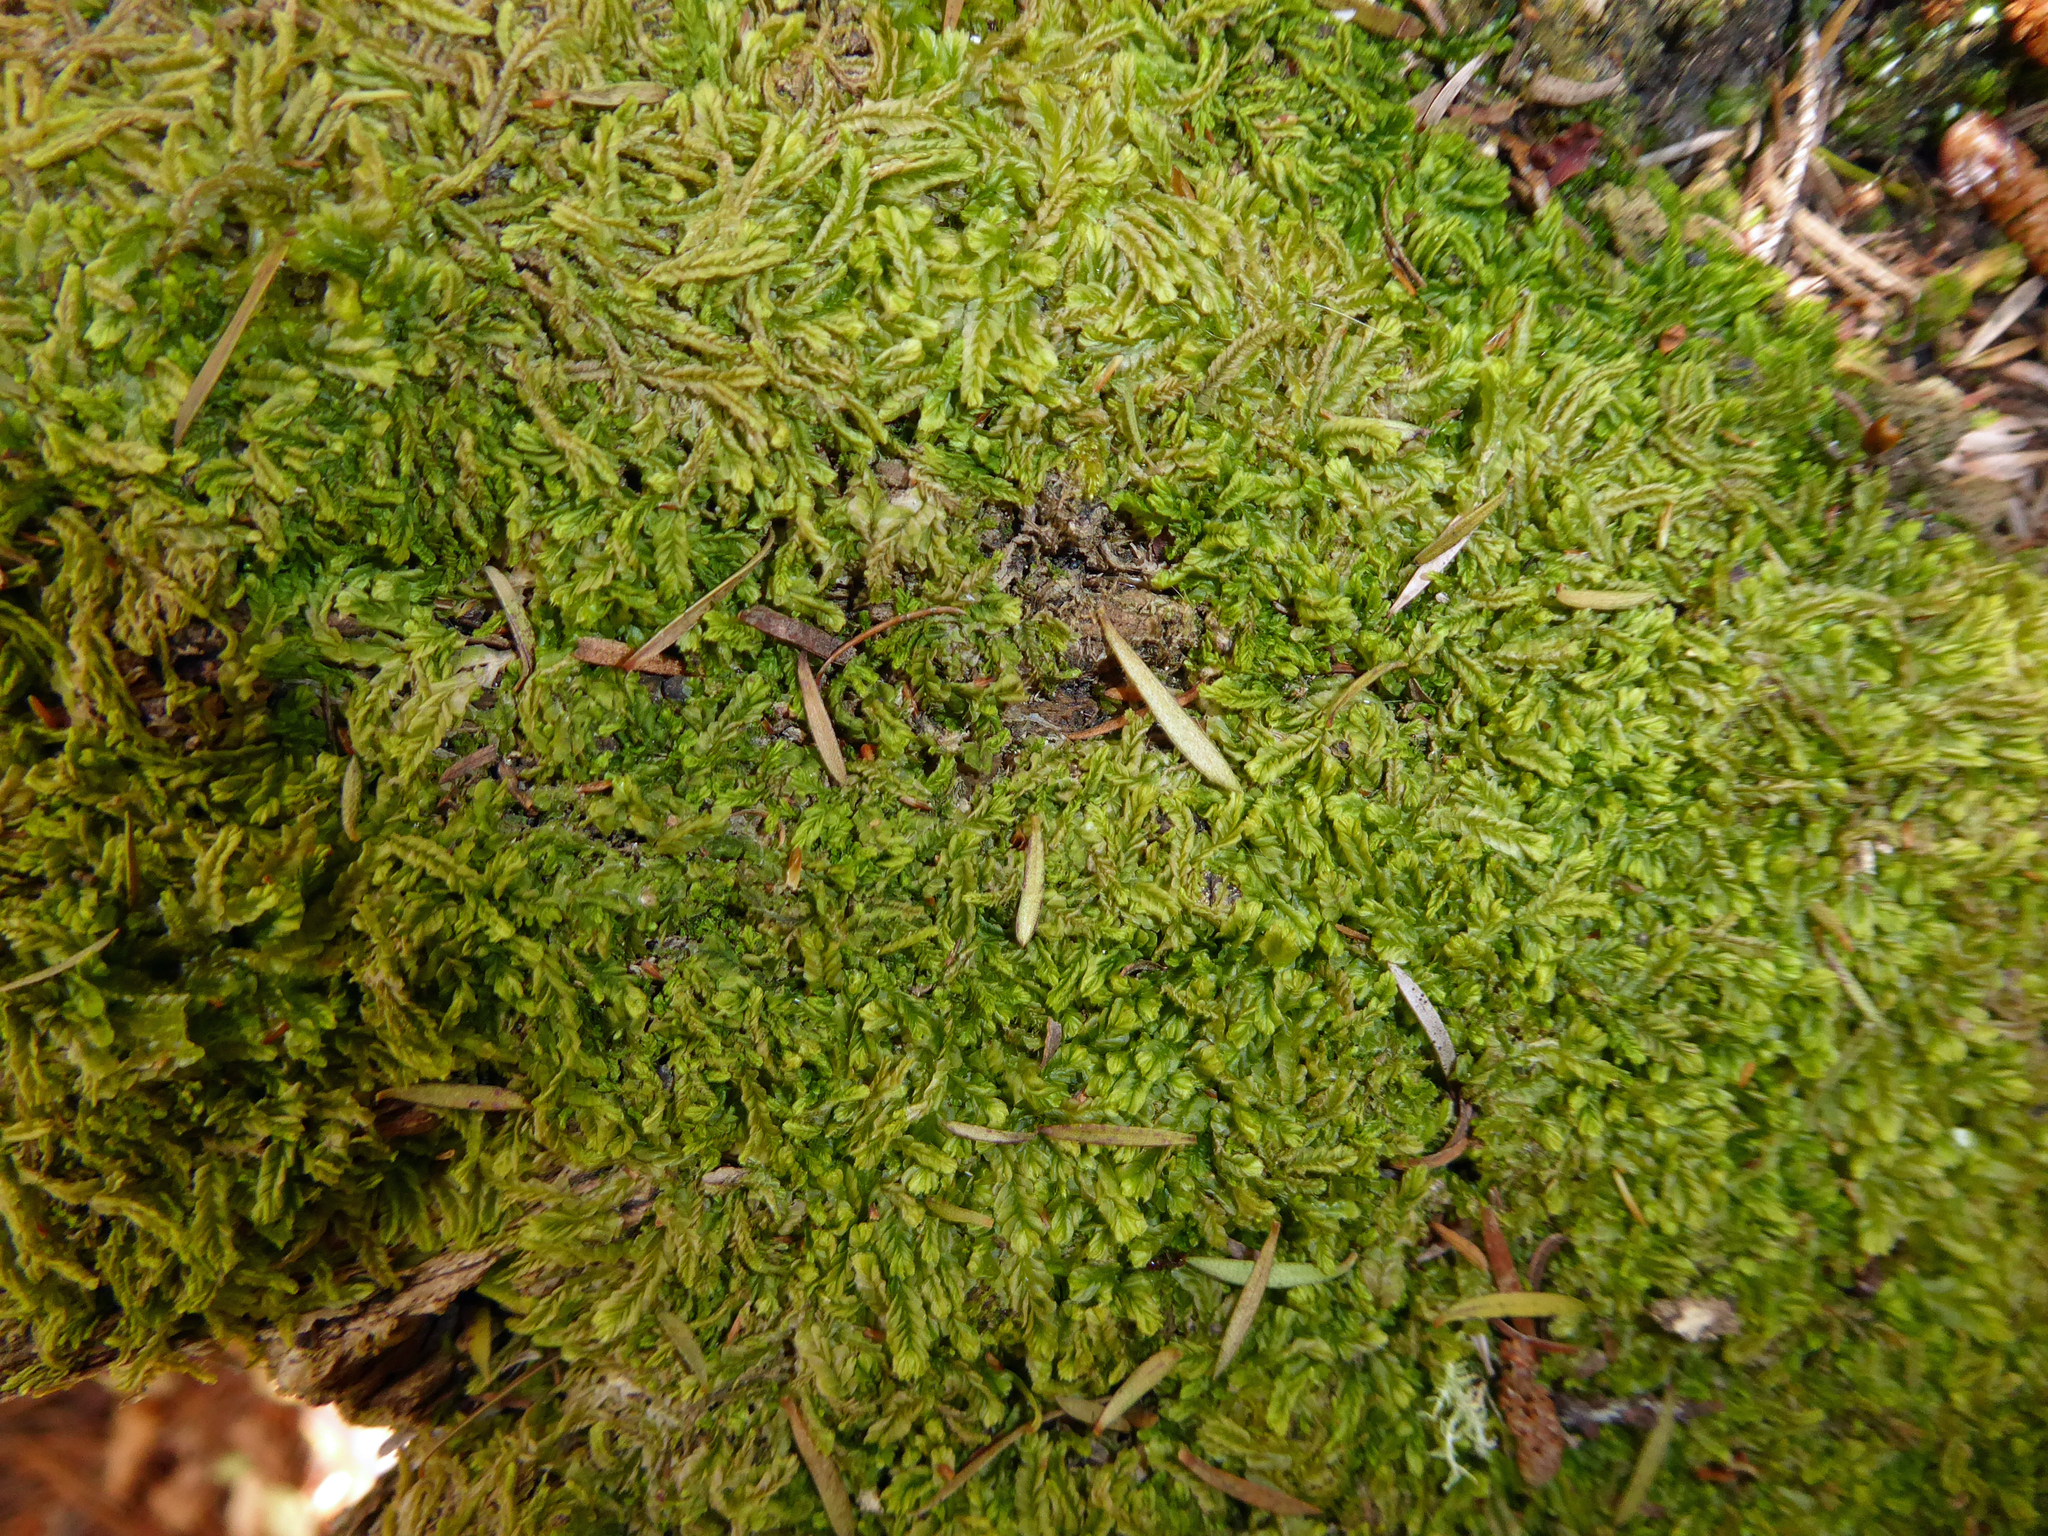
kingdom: Plantae
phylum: Marchantiophyta
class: Jungermanniopsida
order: Jungermanniales
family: Lophocoleaceae
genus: Lophocolea
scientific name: Lophocolea semiteres
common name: Southern crestwort
